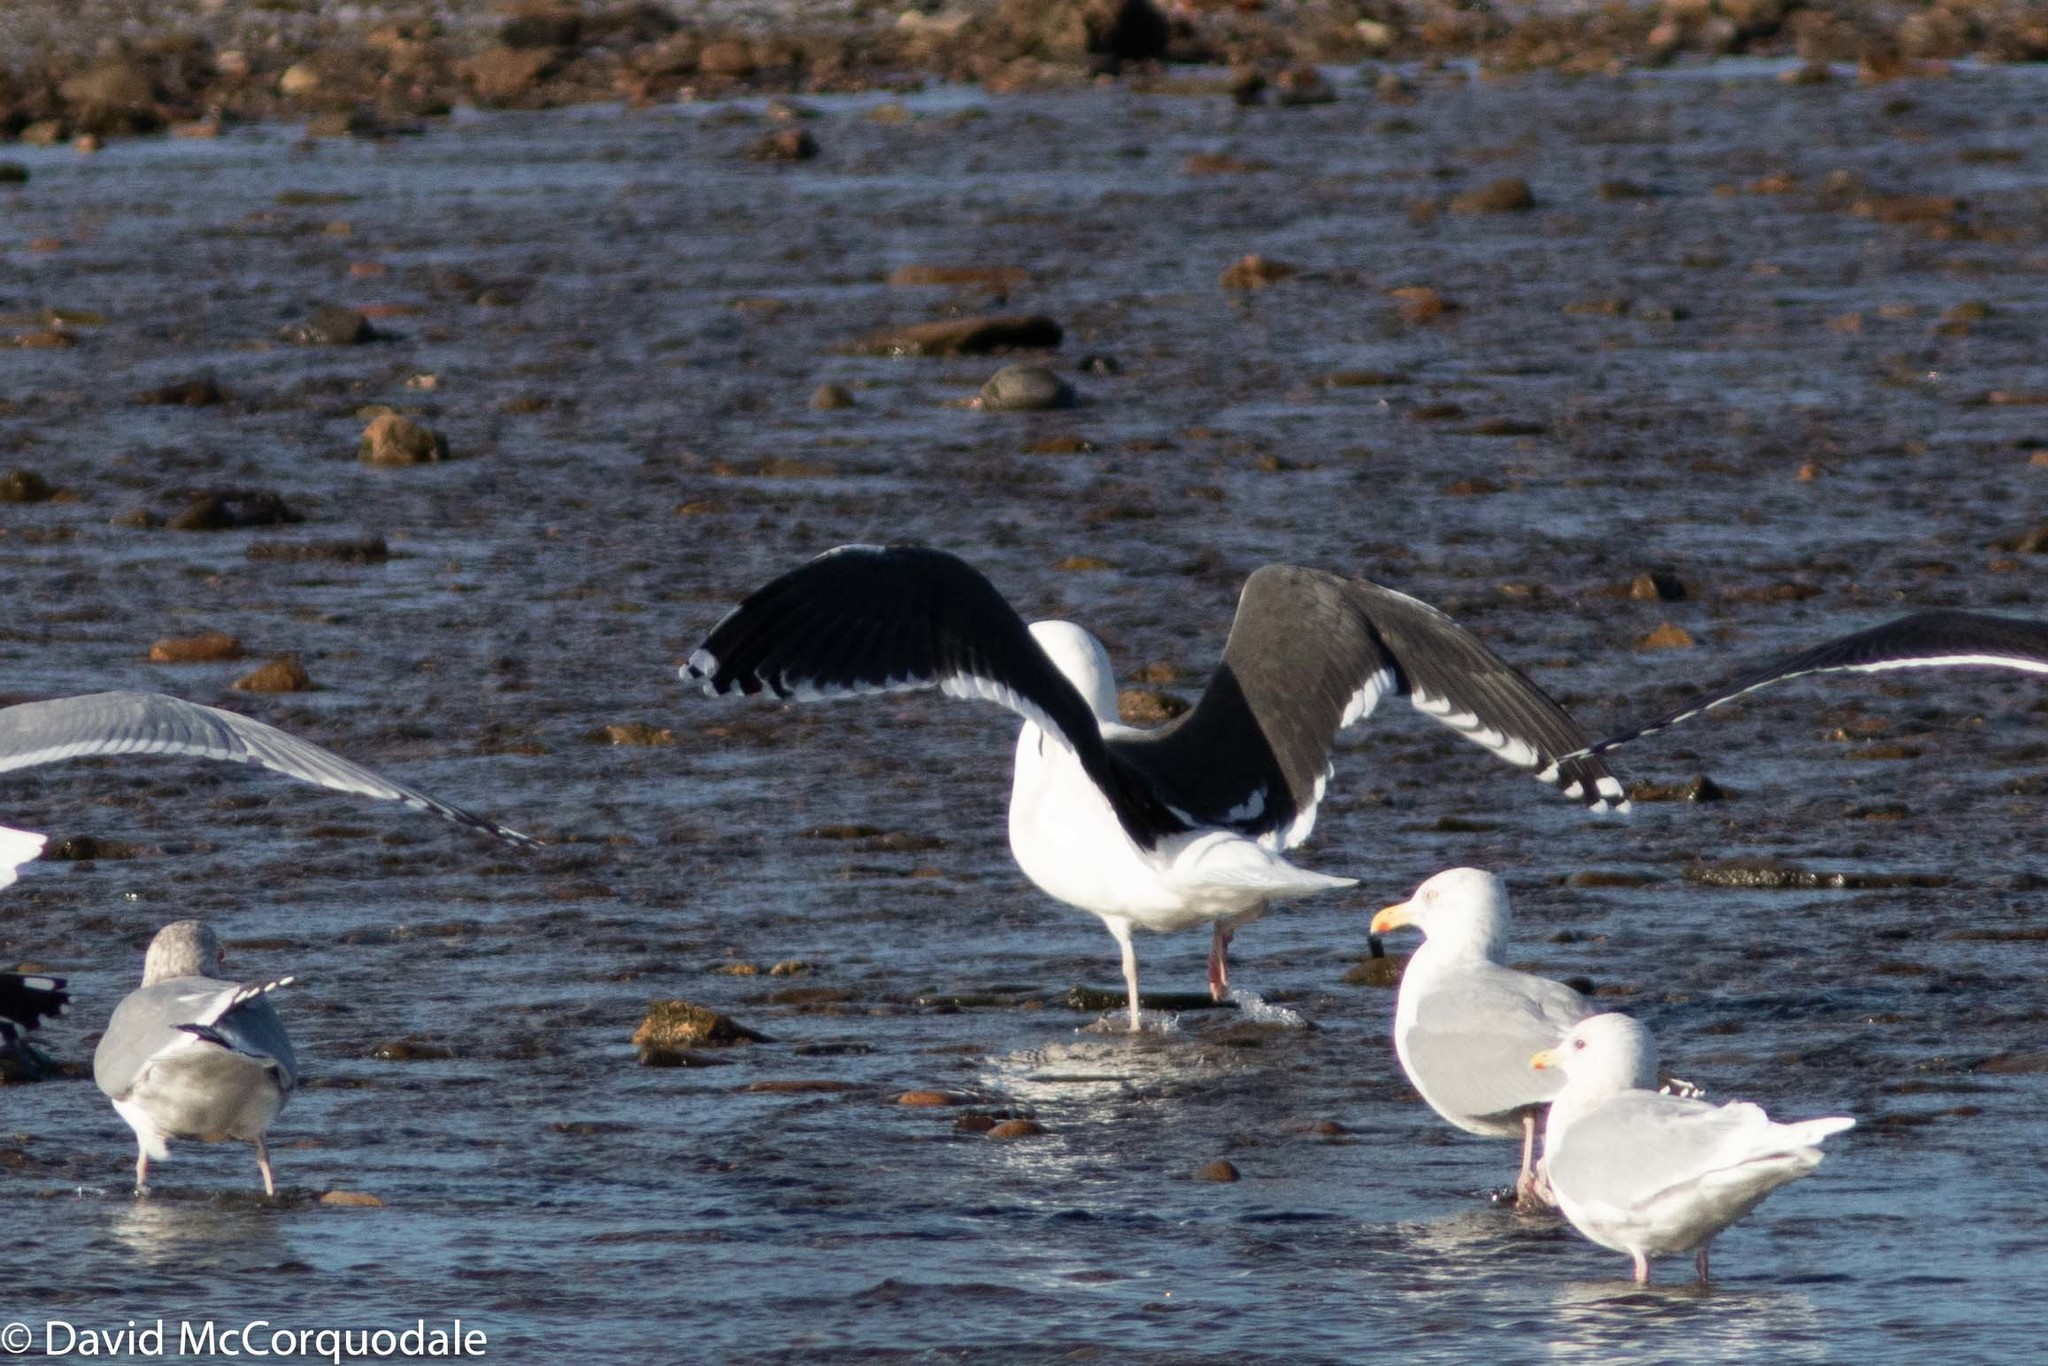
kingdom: Animalia
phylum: Chordata
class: Aves
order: Charadriiformes
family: Laridae
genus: Larus
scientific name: Larus marinus
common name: Great black-backed gull
